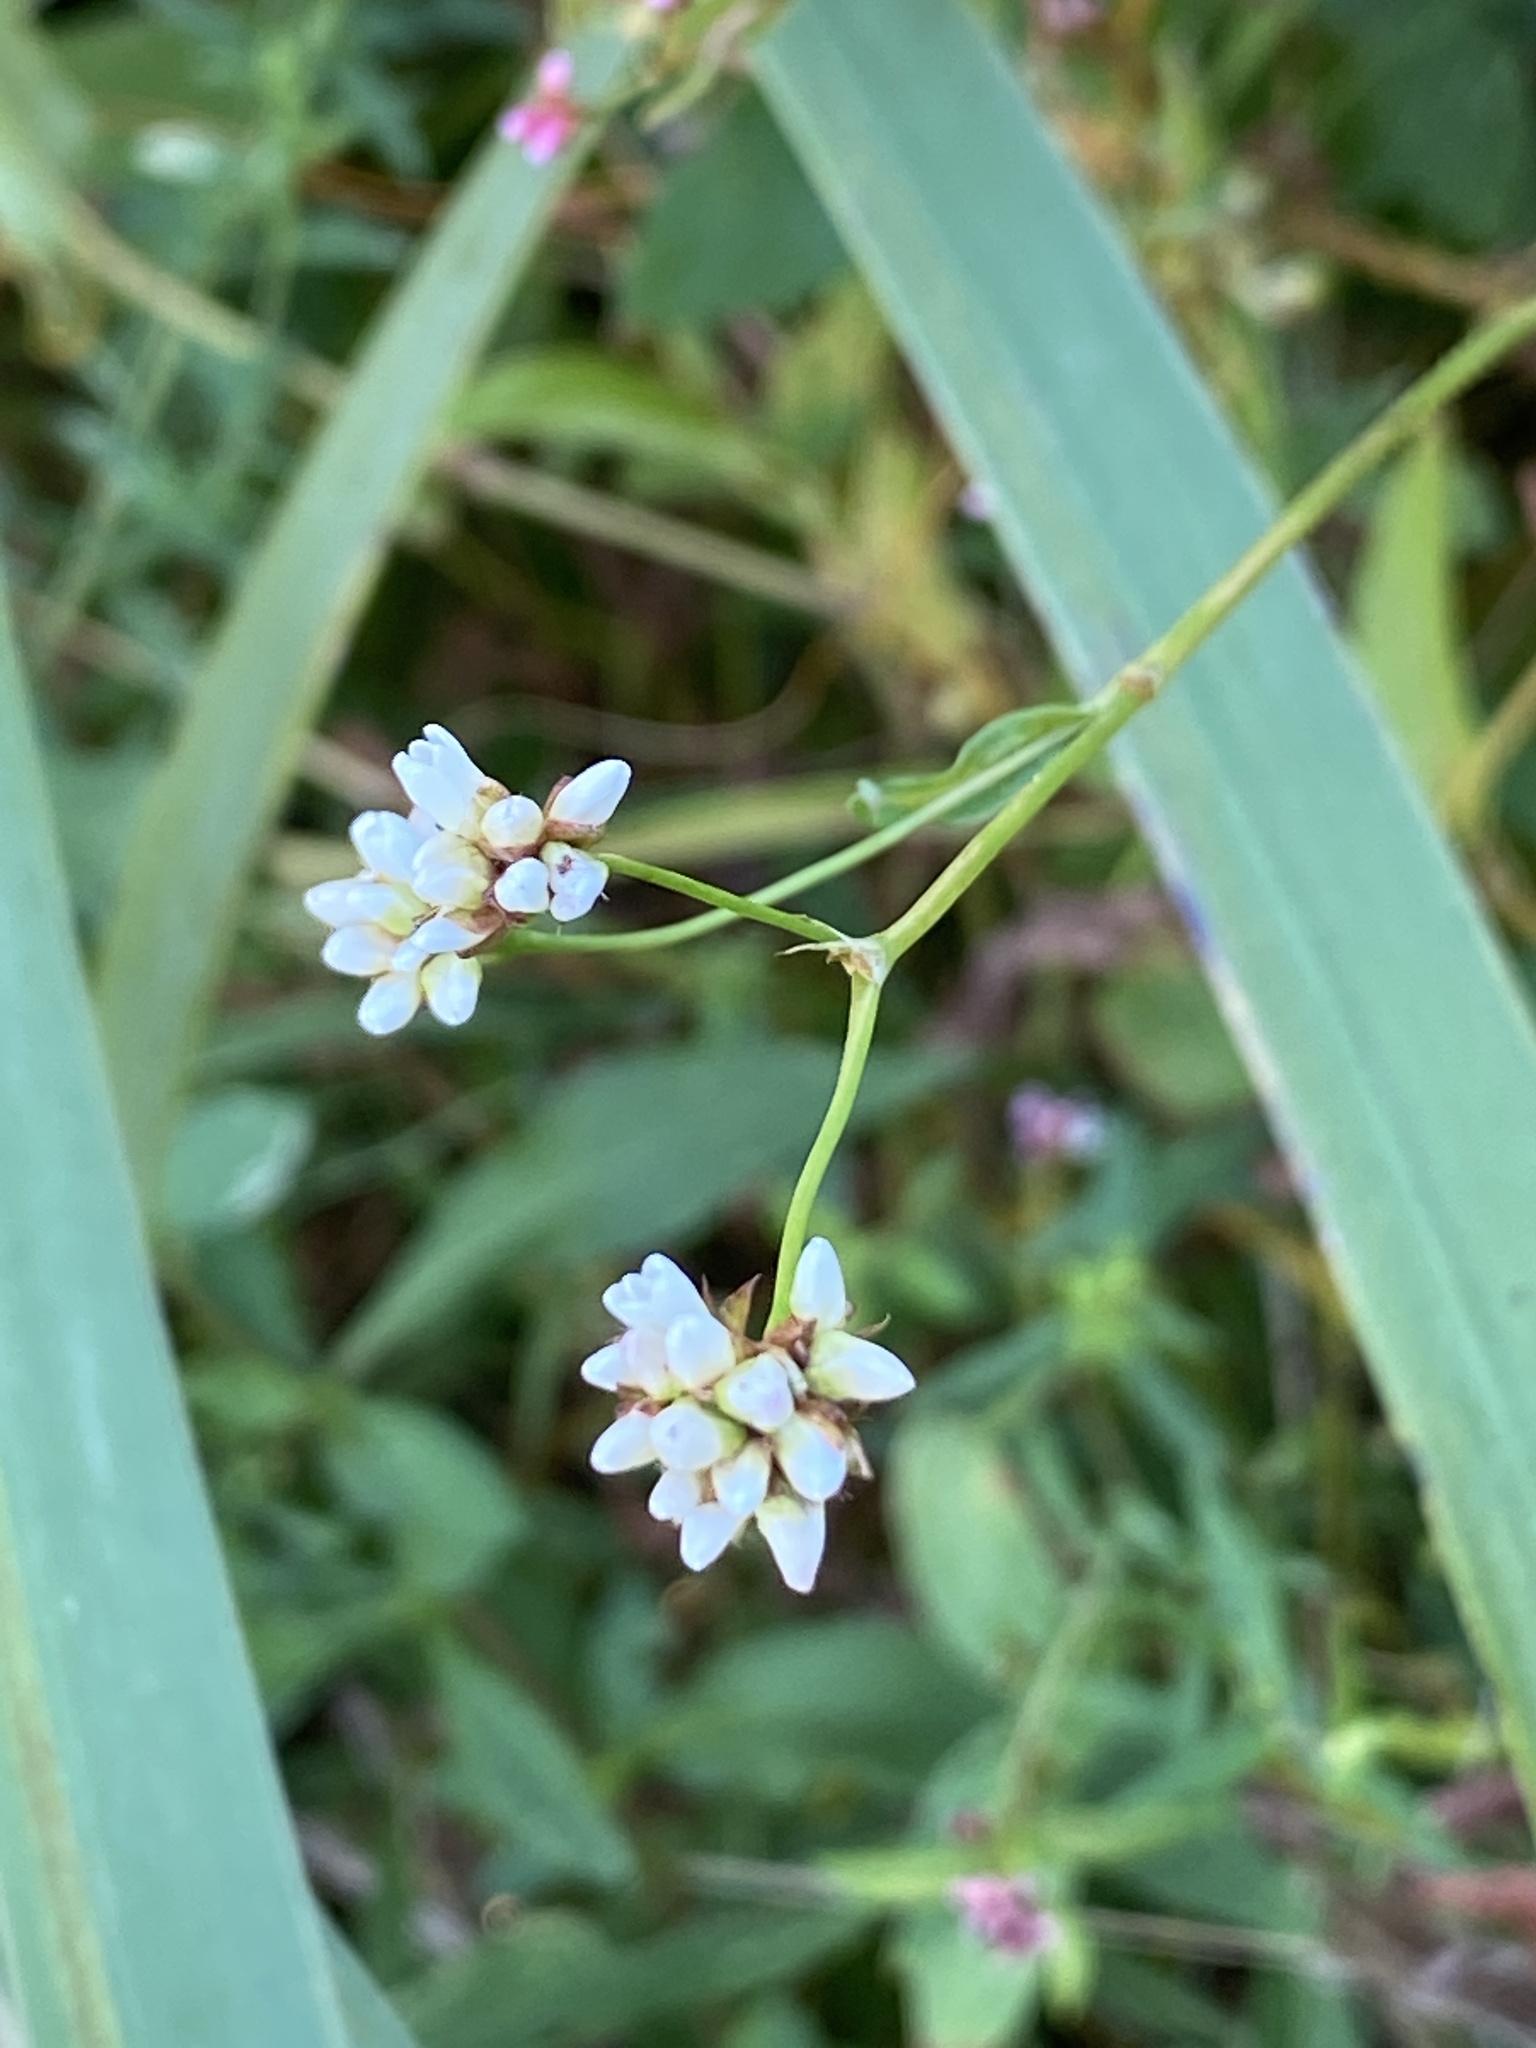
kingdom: Plantae
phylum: Tracheophyta
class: Magnoliopsida
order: Caryophyllales
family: Polygonaceae
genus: Persicaria
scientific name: Persicaria sagittata
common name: American tearthumb
